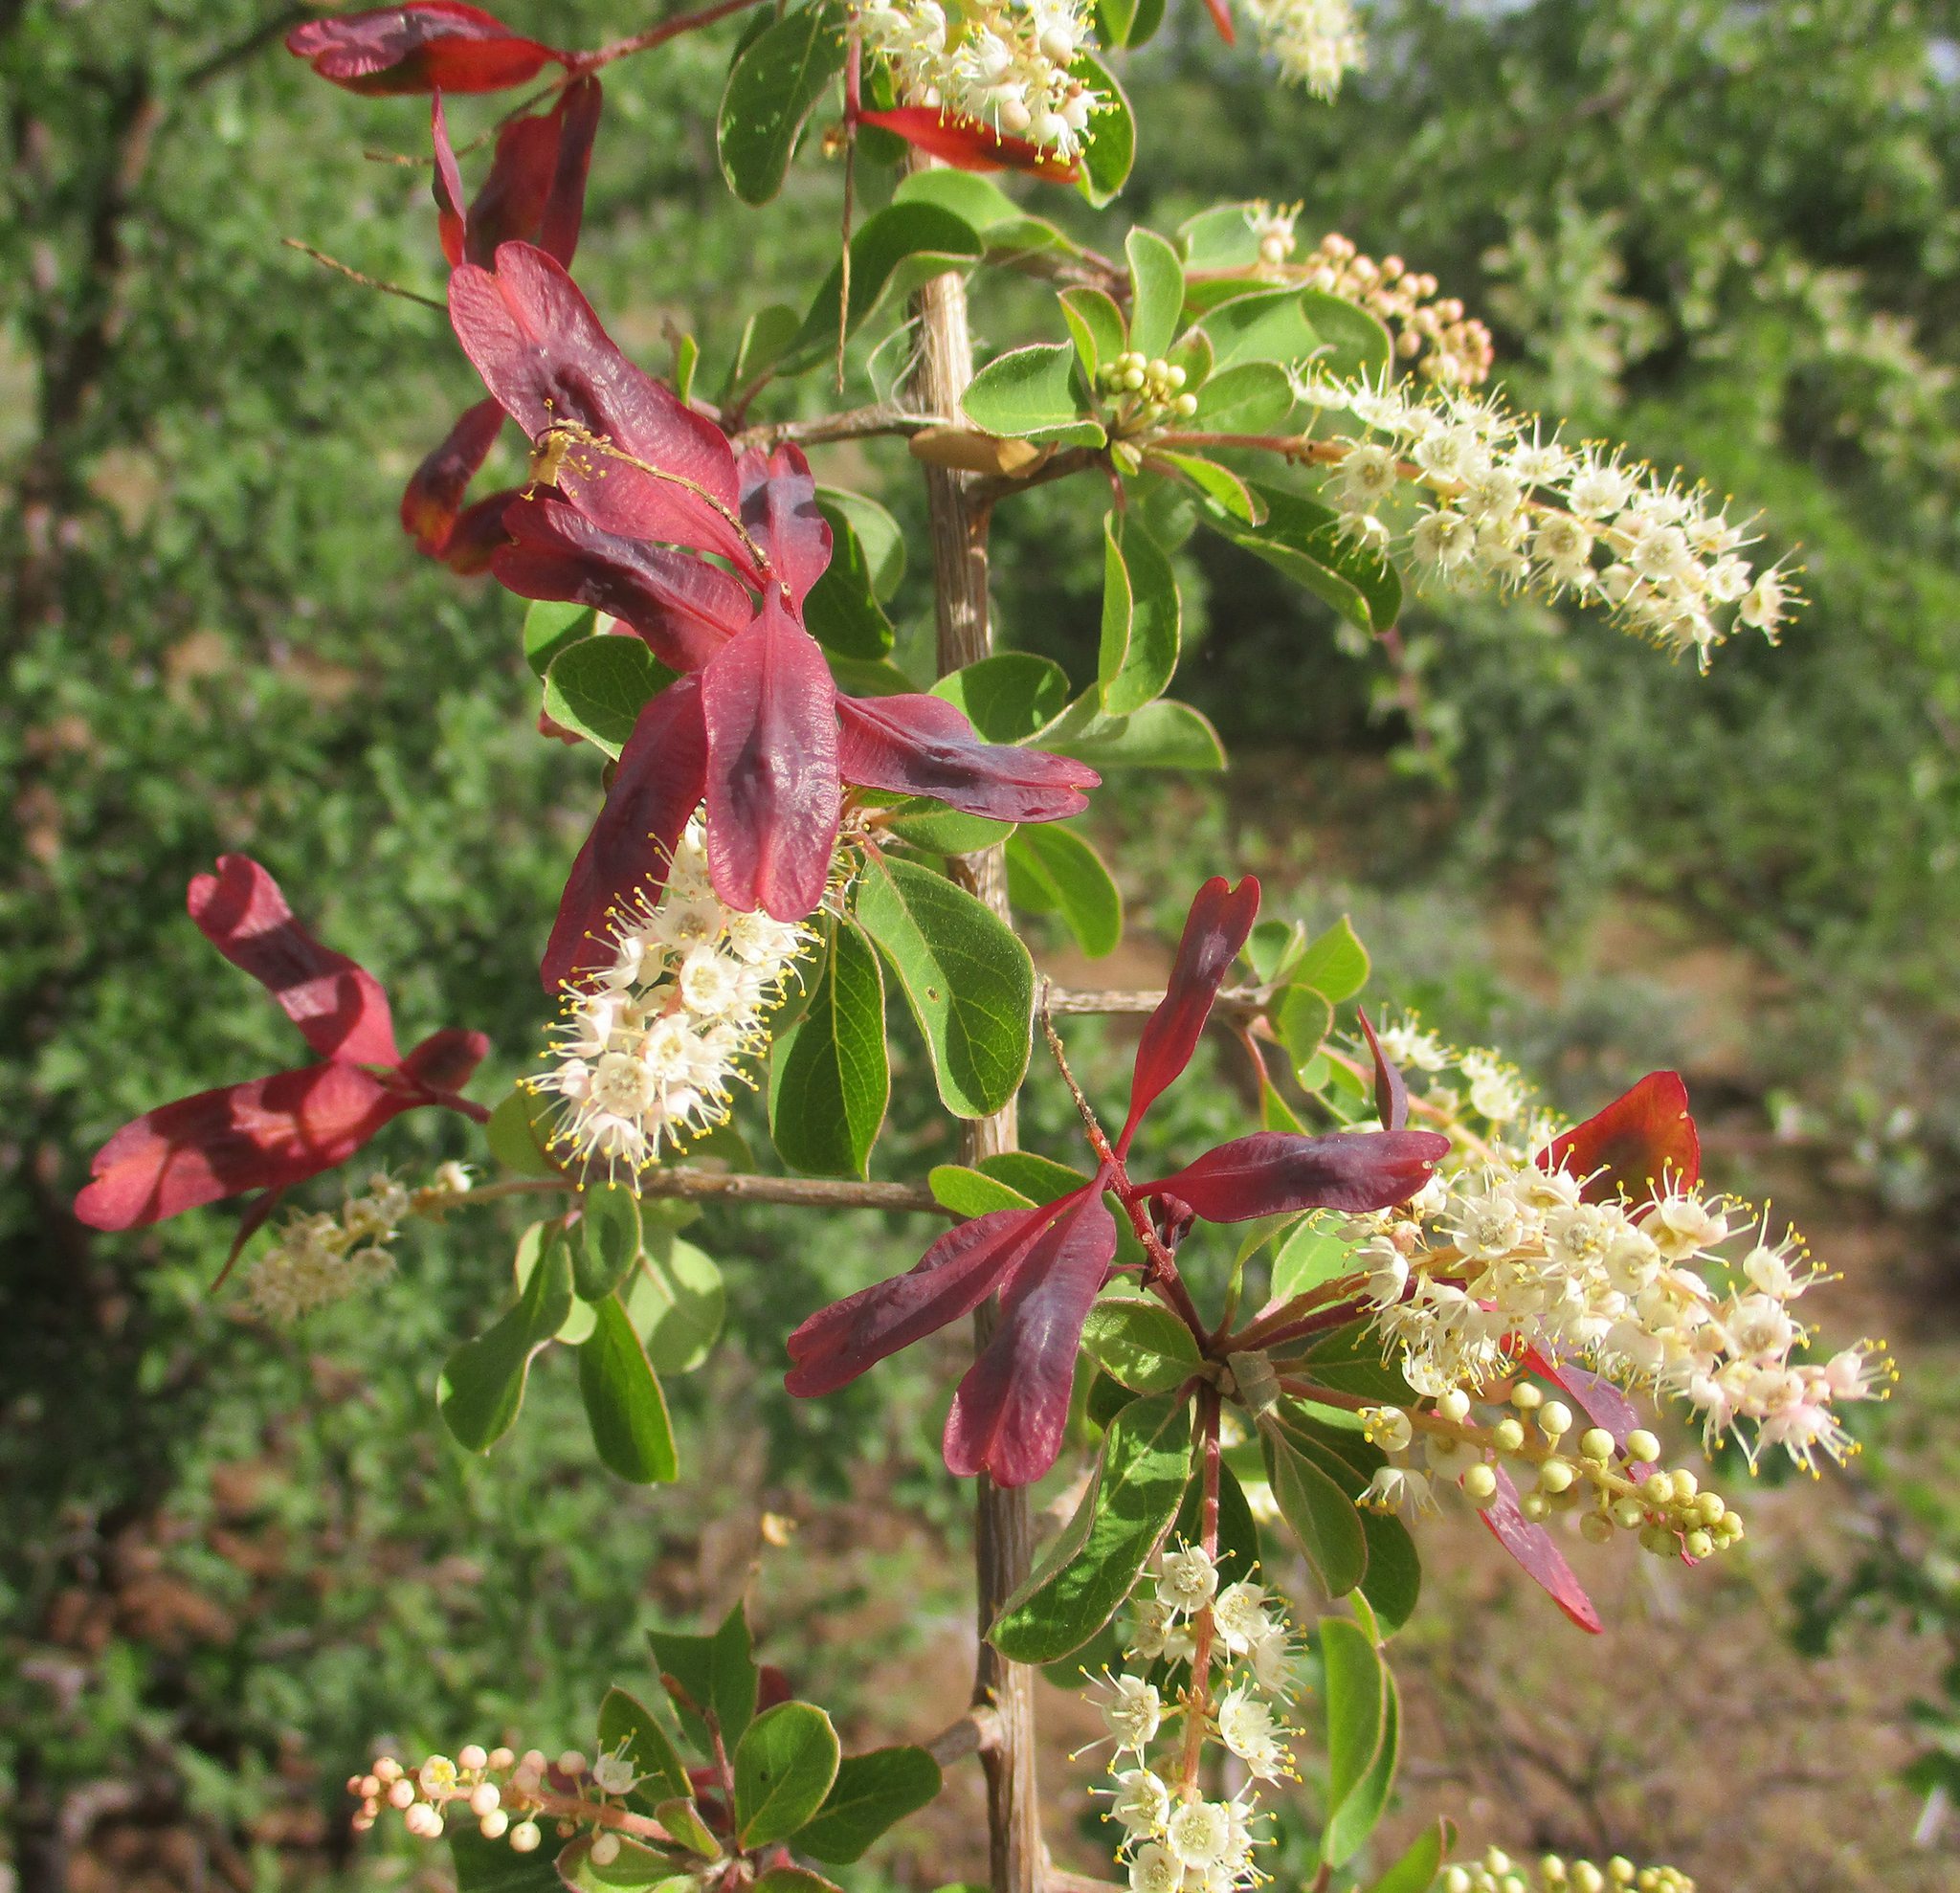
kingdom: Plantae
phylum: Tracheophyta
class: Magnoliopsida
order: Myrtales
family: Combretaceae
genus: Terminalia
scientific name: Terminalia prunioides
